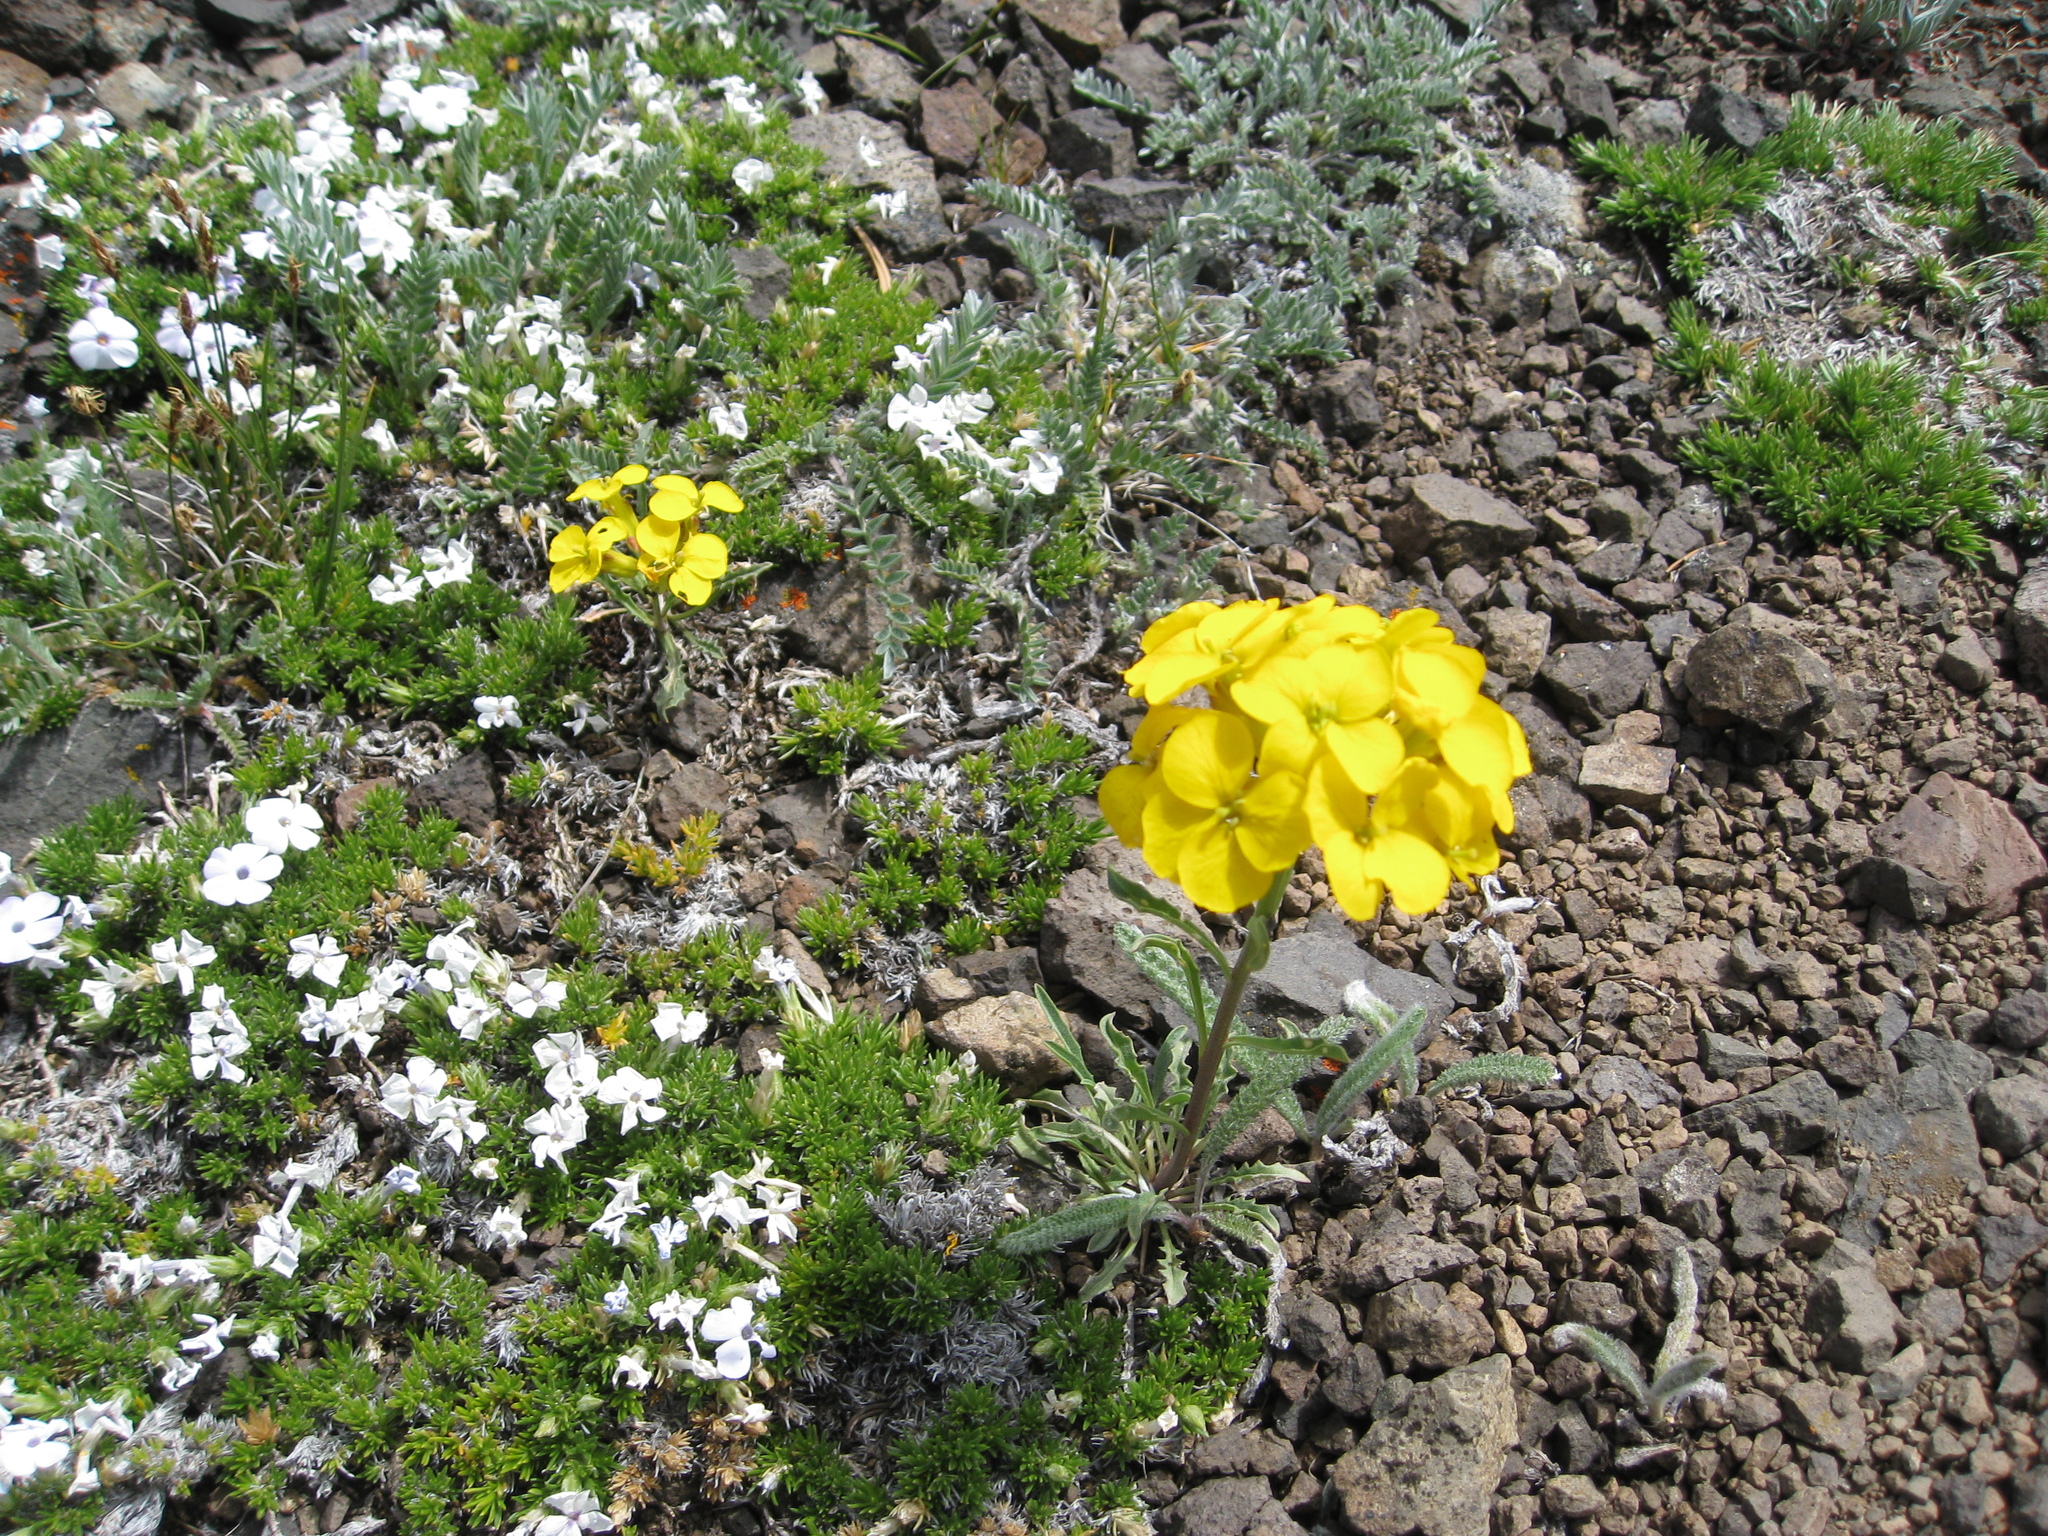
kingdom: Plantae
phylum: Tracheophyta
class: Magnoliopsida
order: Brassicales
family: Brassicaceae
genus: Erysimum
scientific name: Erysimum arenicola
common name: Cascade wallflower
